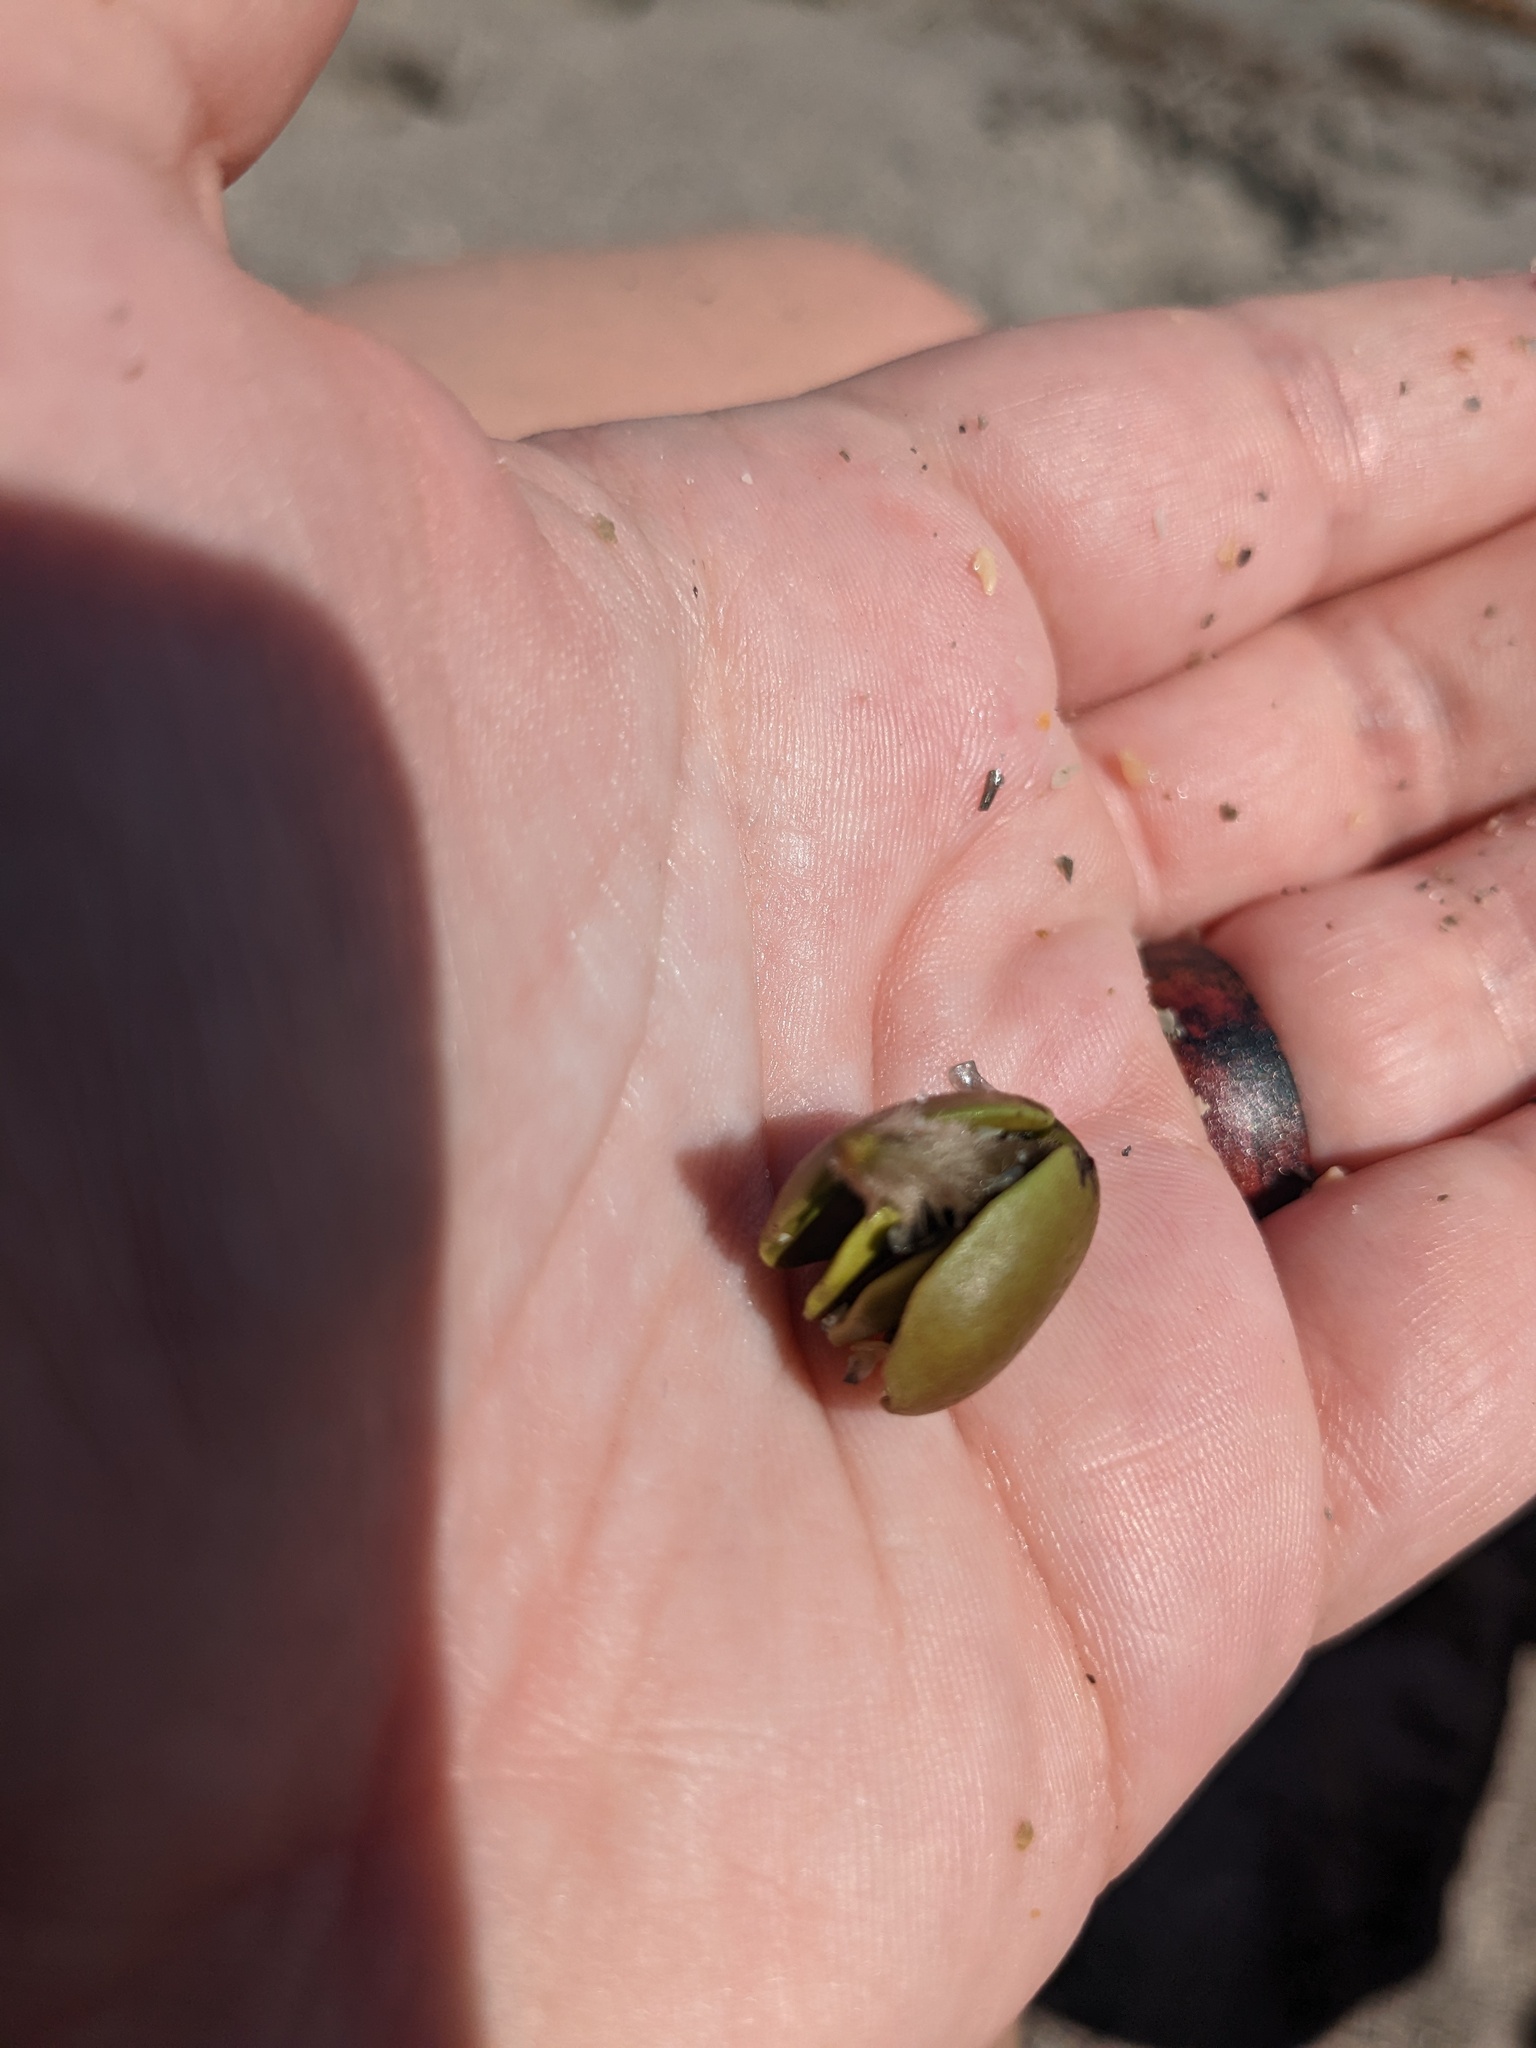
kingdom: Plantae
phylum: Tracheophyta
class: Magnoliopsida
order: Lamiales
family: Acanthaceae
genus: Avicennia
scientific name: Avicennia germinans
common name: Black mangrove
